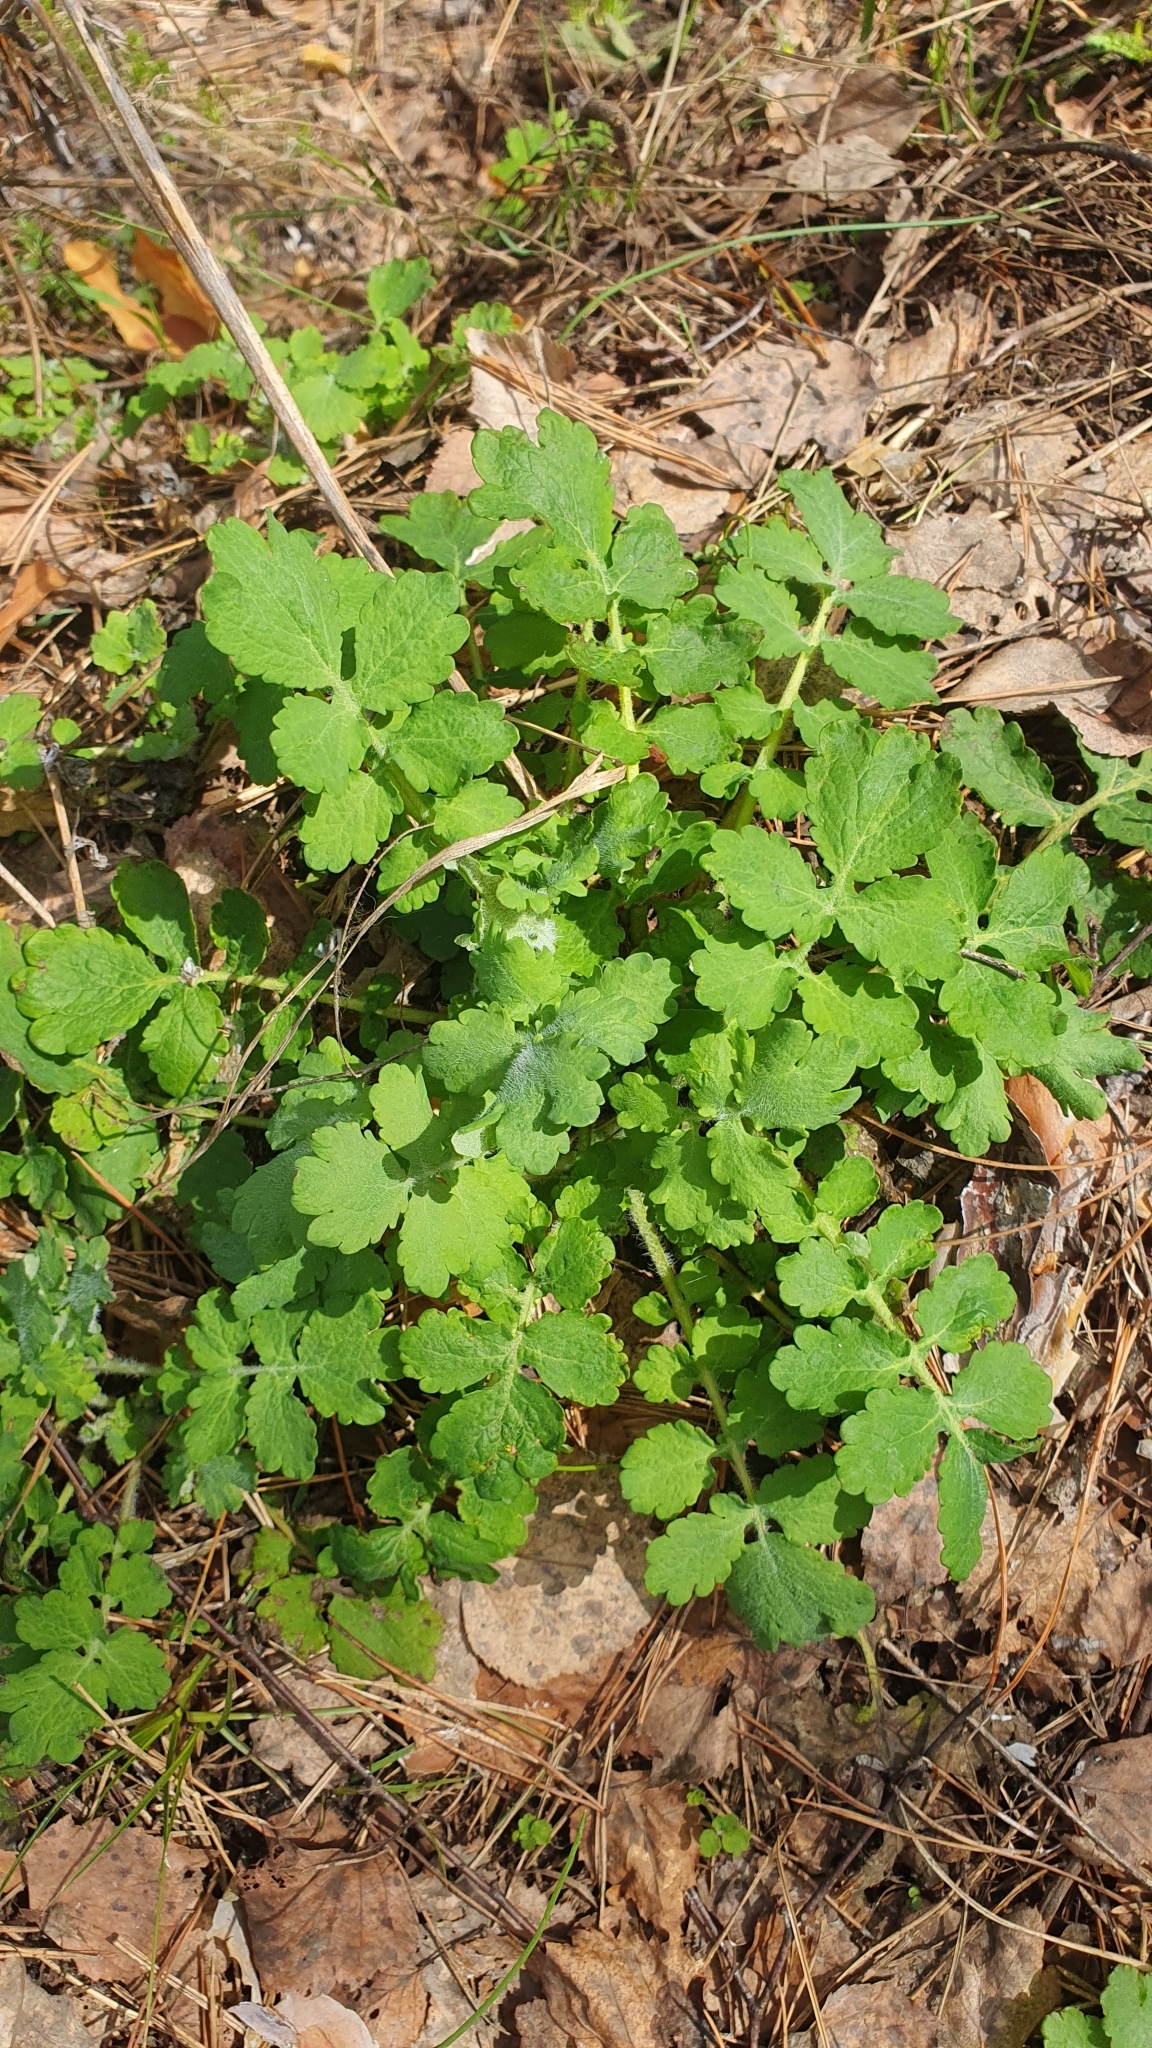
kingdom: Plantae
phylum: Tracheophyta
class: Magnoliopsida
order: Ranunculales
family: Papaveraceae
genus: Chelidonium
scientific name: Chelidonium majus
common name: Greater celandine
